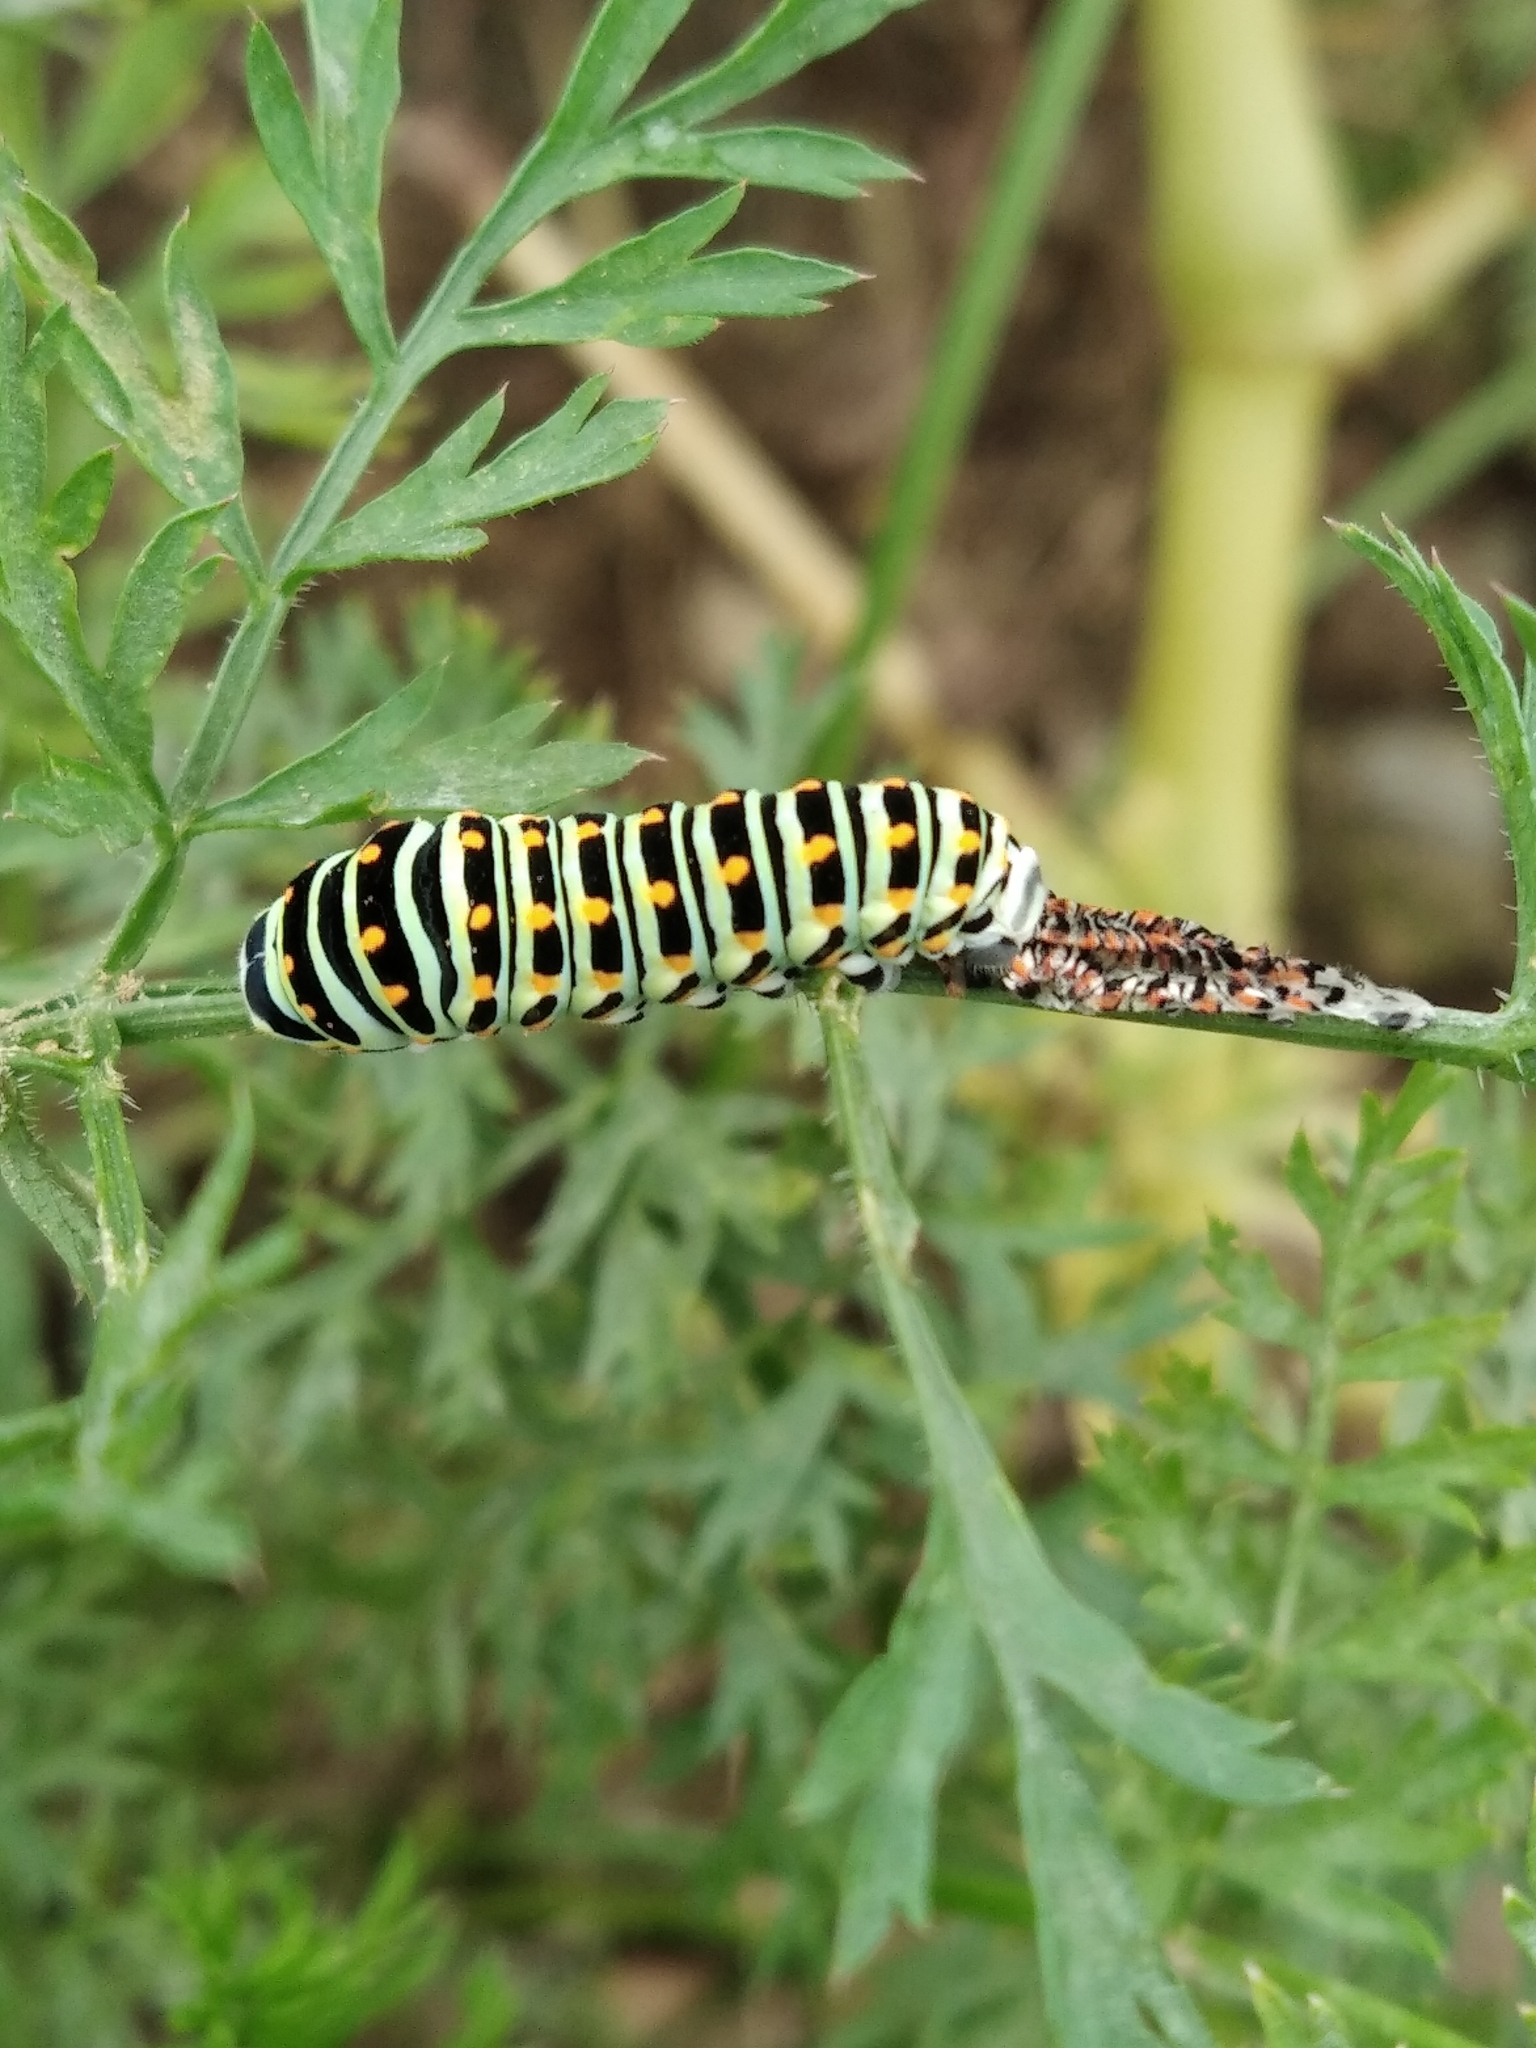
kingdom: Animalia
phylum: Arthropoda
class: Insecta
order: Lepidoptera
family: Papilionidae
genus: Papilio
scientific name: Papilio machaon
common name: Swallowtail
